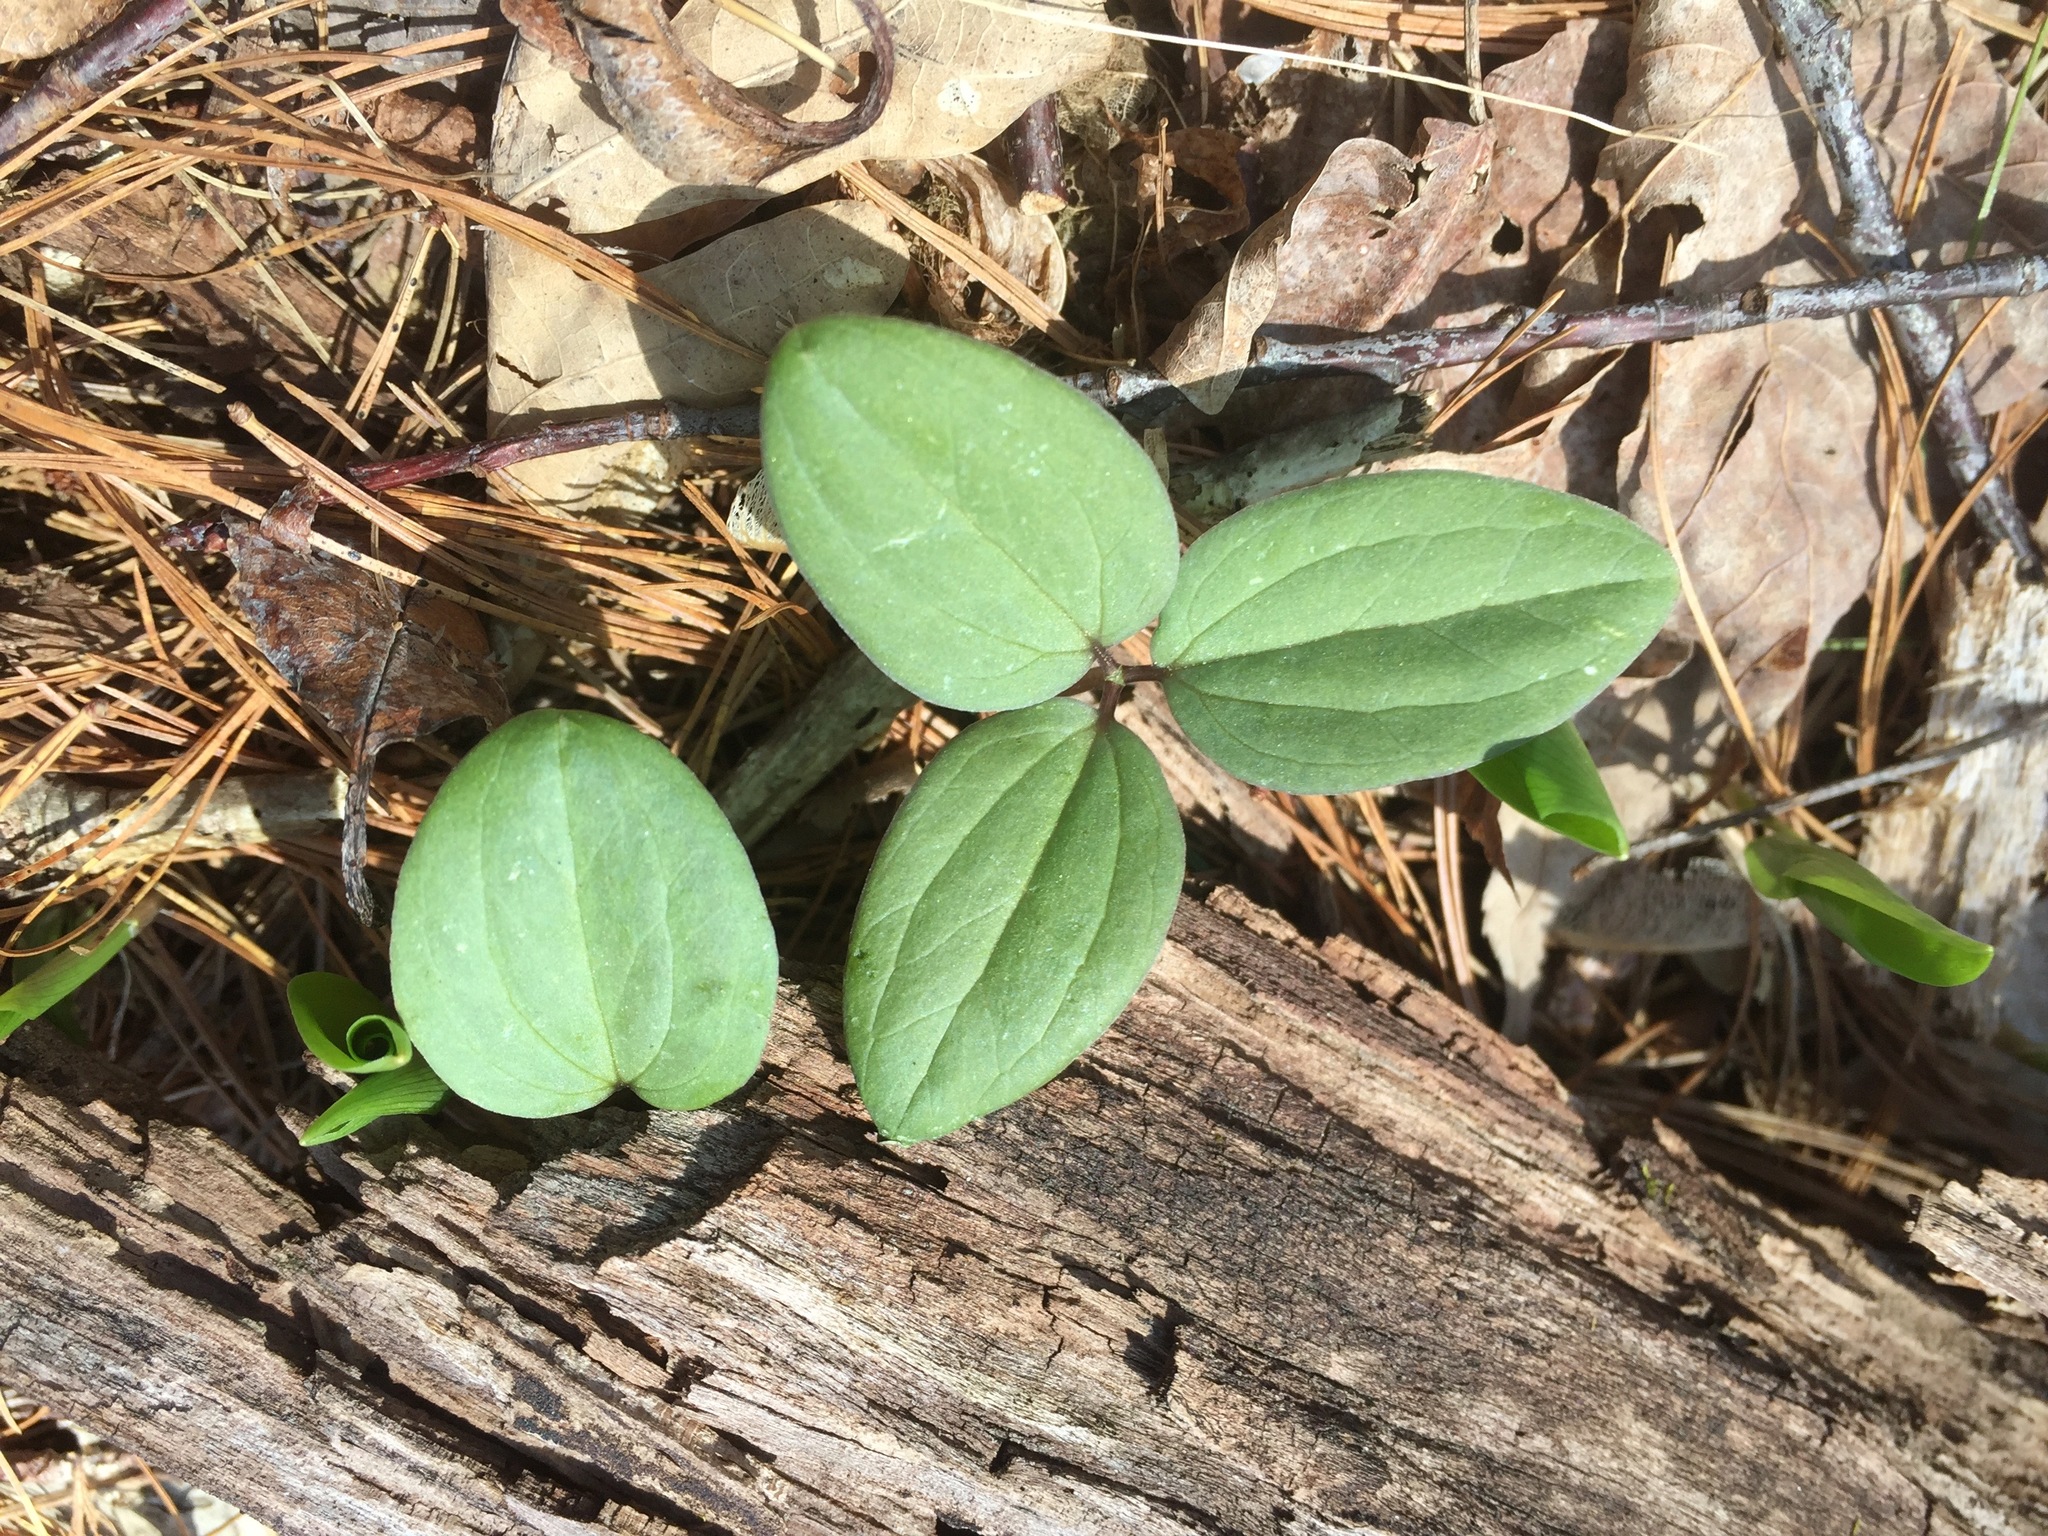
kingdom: Plantae
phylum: Tracheophyta
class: Liliopsida
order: Liliales
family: Melanthiaceae
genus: Trillium
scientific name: Trillium nivale
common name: Dwarf white trillium
